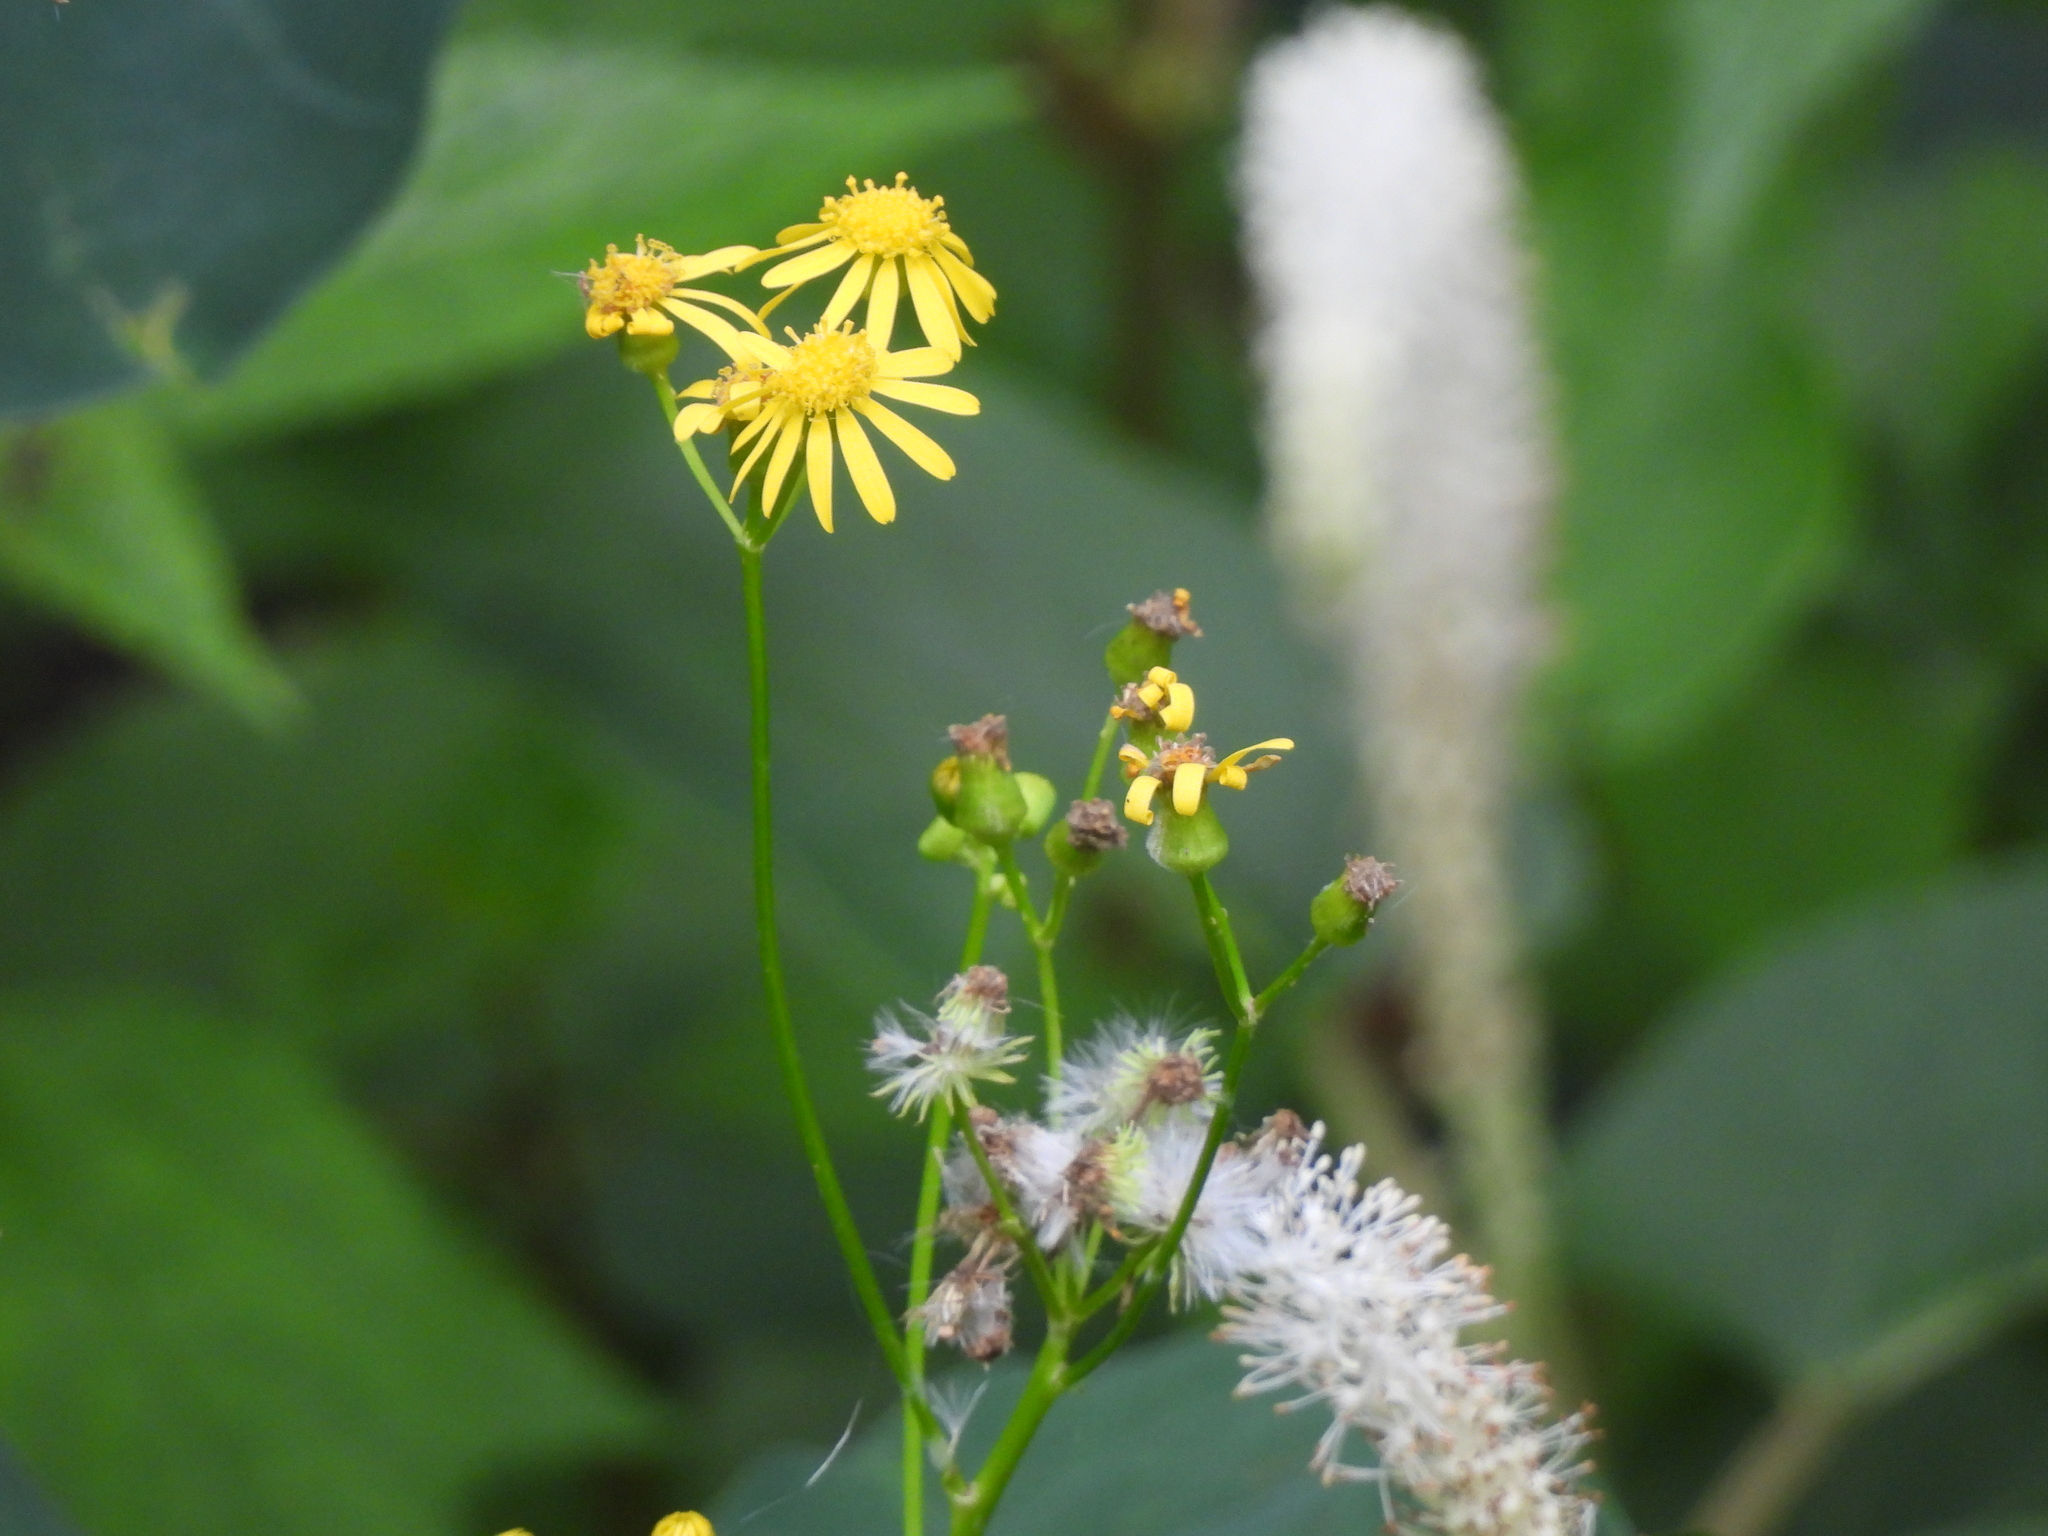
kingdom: Plantae
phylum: Tracheophyta
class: Magnoliopsida
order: Asterales
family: Asteraceae
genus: Packera
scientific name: Packera glabella
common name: Butterweed
